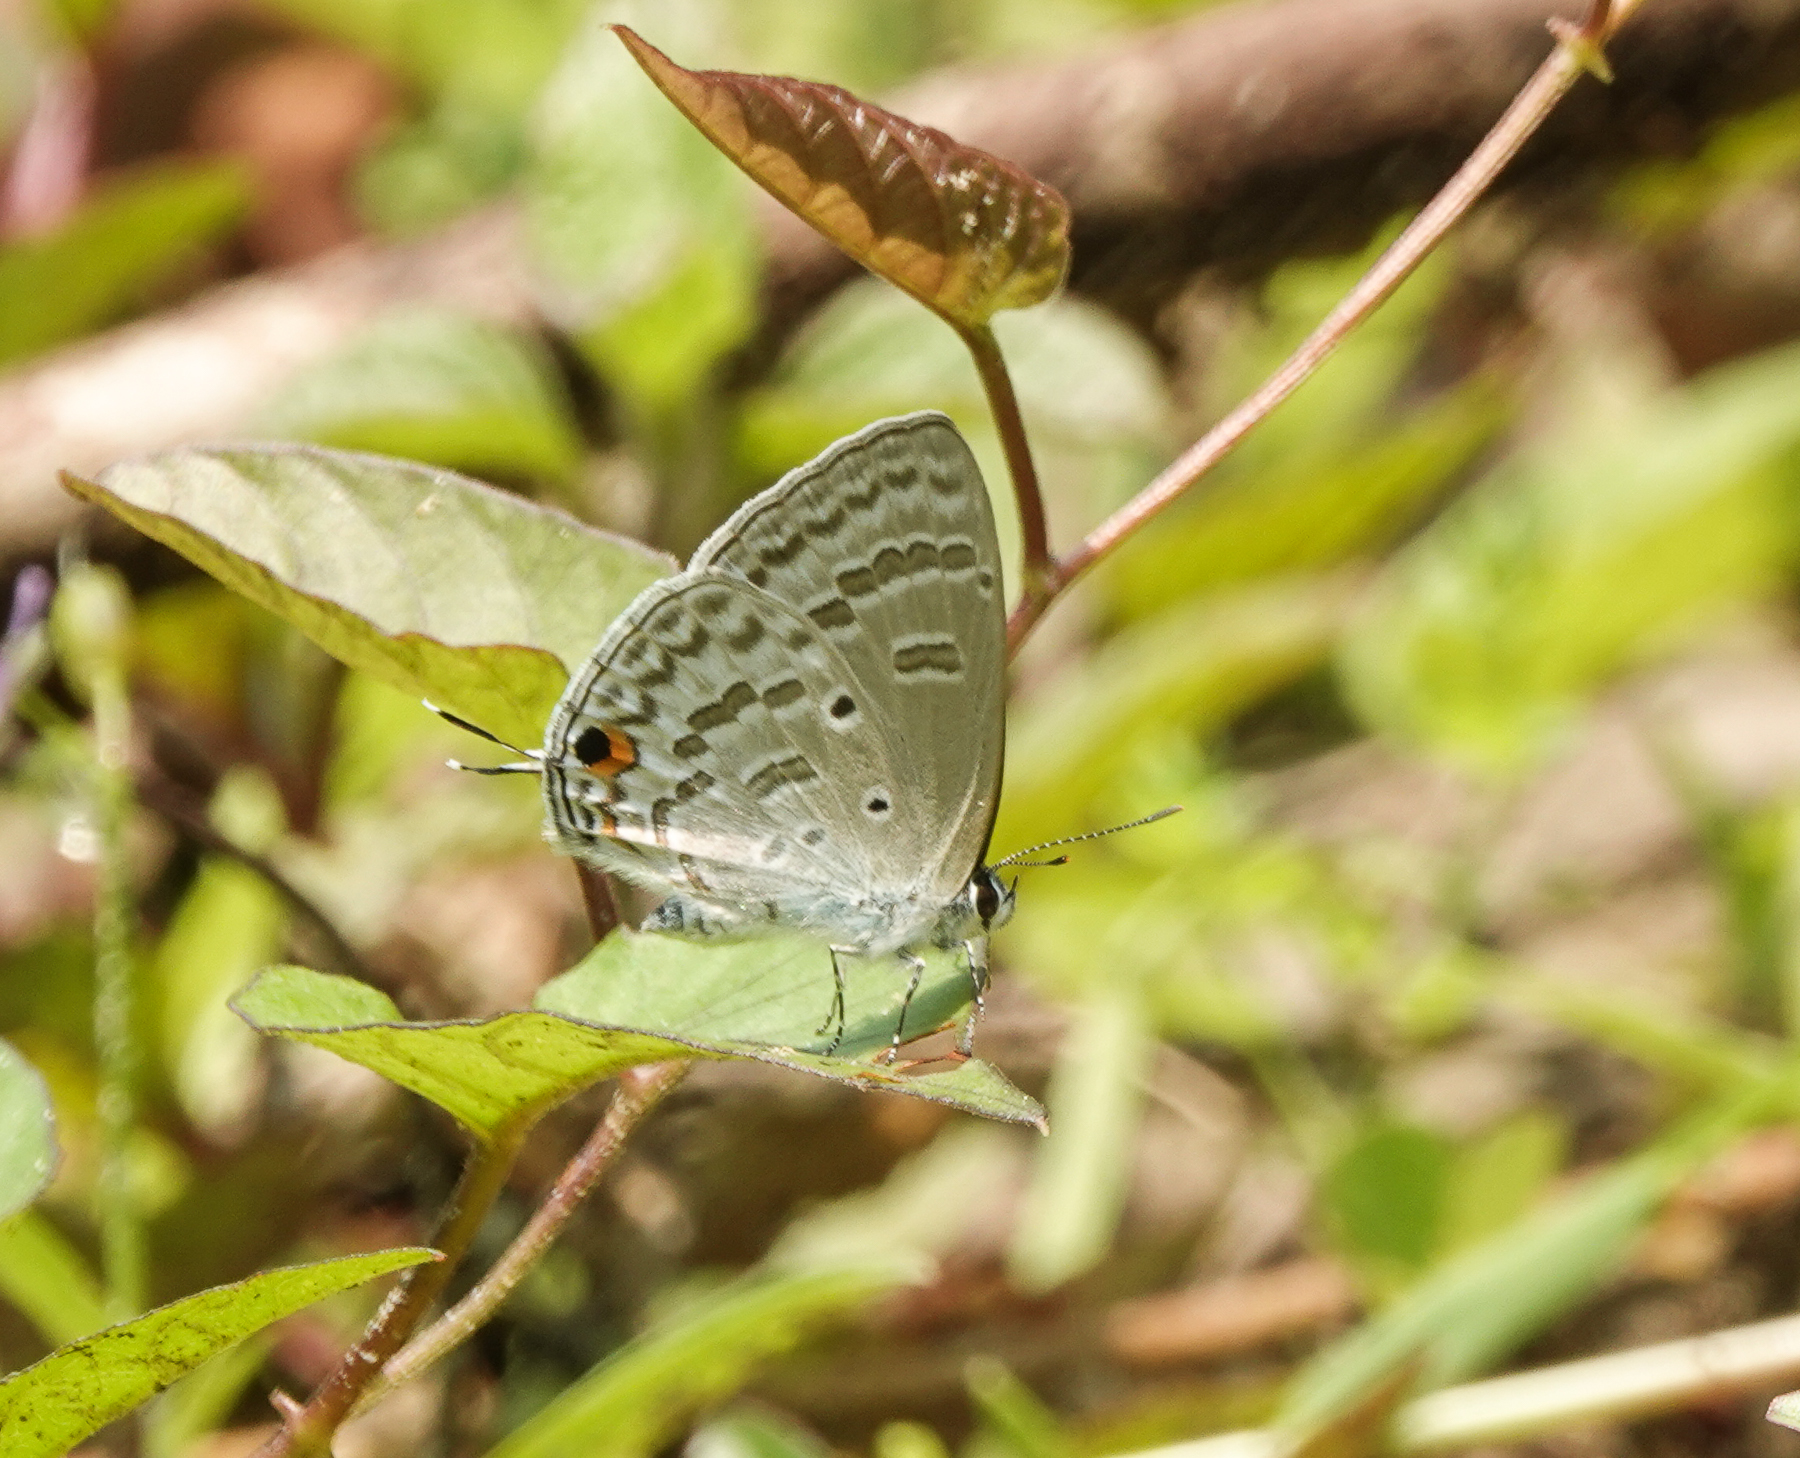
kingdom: Animalia
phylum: Arthropoda
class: Insecta
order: Lepidoptera
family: Lycaenidae
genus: Catochrysops
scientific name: Catochrysops panormus
